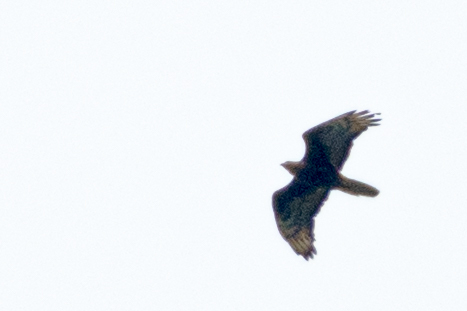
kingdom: Animalia
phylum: Chordata
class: Aves
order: Accipitriformes
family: Accipitridae
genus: Pernis
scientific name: Pernis apivorus
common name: European honey buzzard
